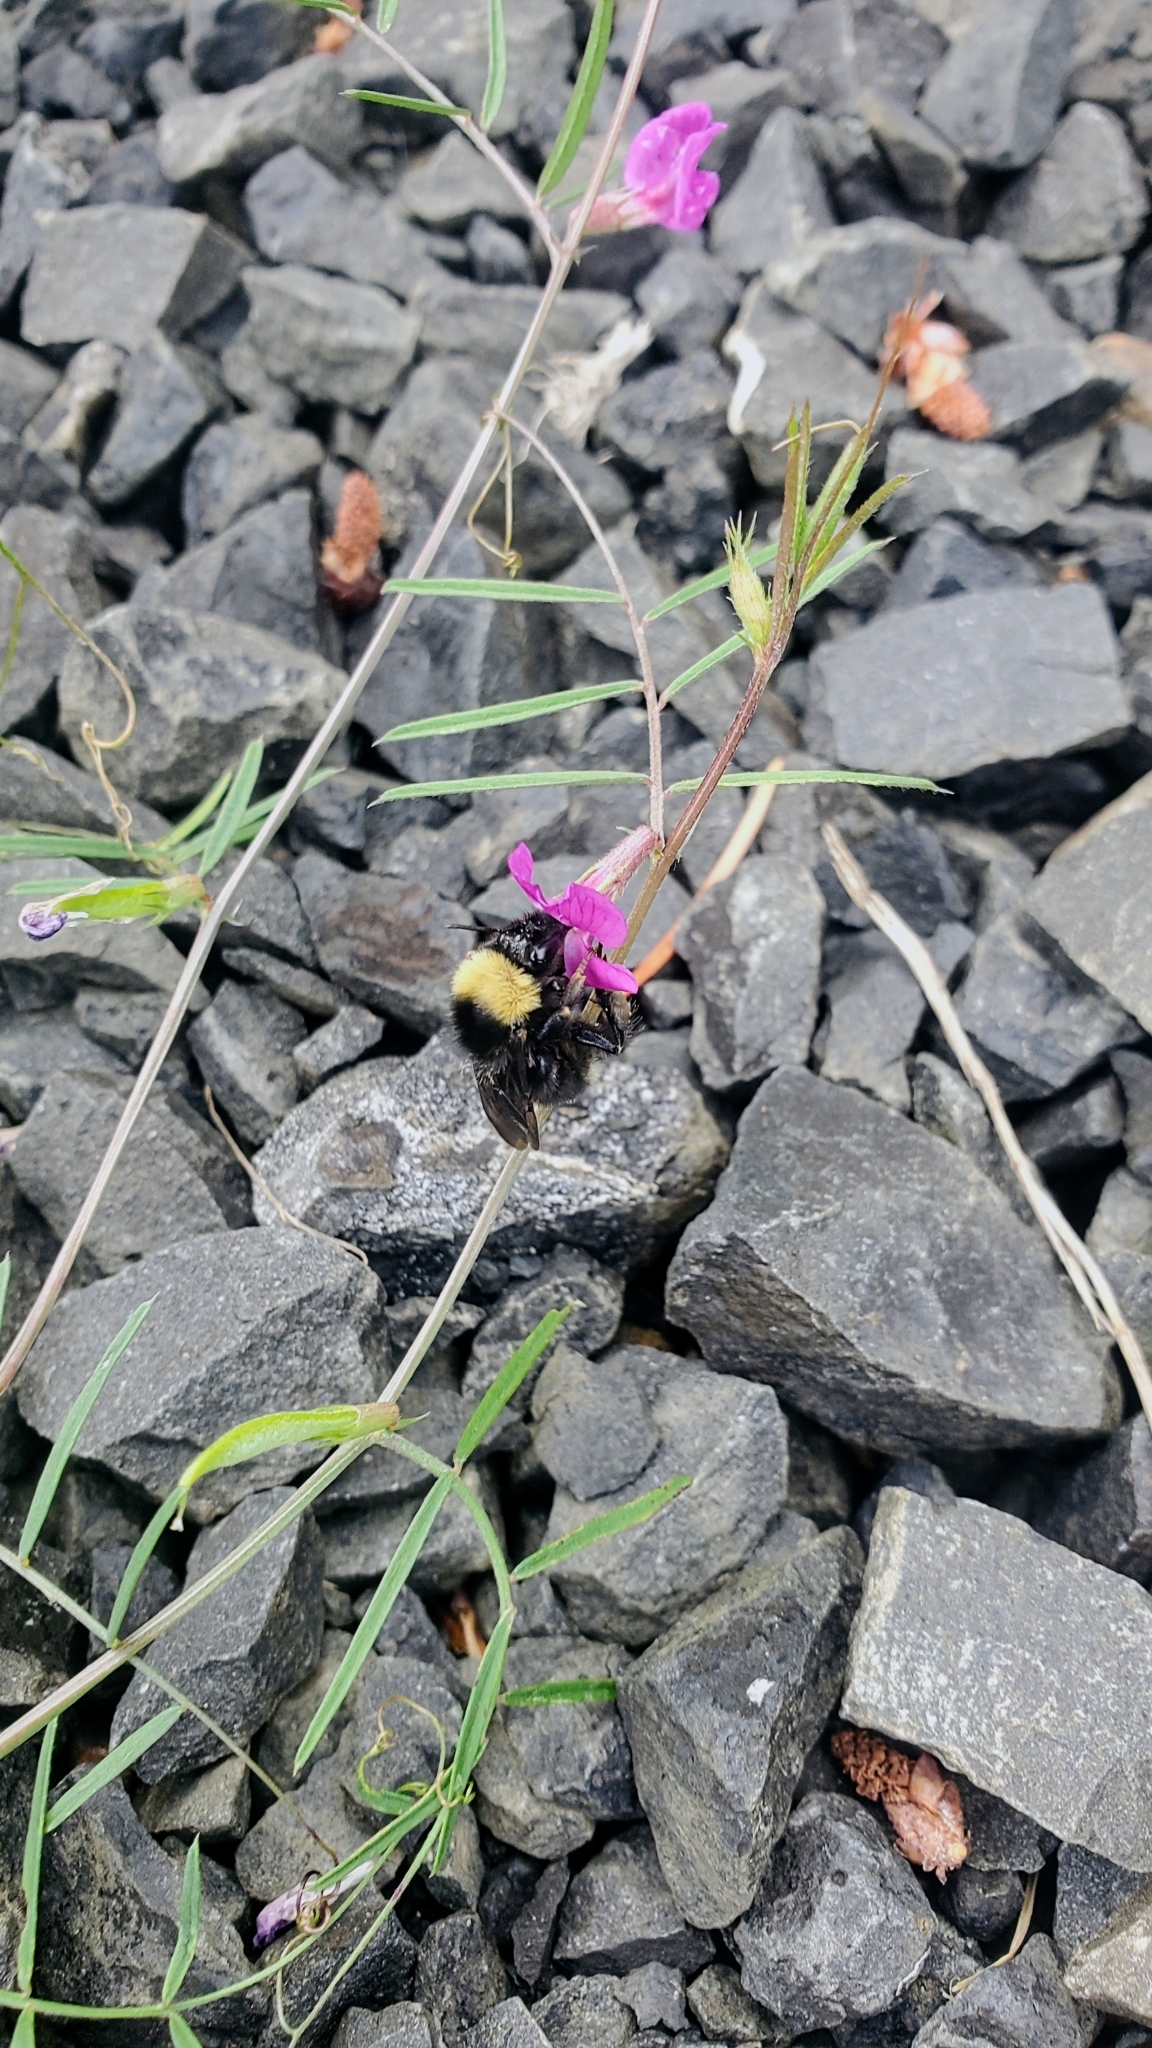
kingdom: Animalia
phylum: Arthropoda
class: Insecta
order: Hymenoptera
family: Apidae
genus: Bombus
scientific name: Bombus californicus
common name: California bumble bee
